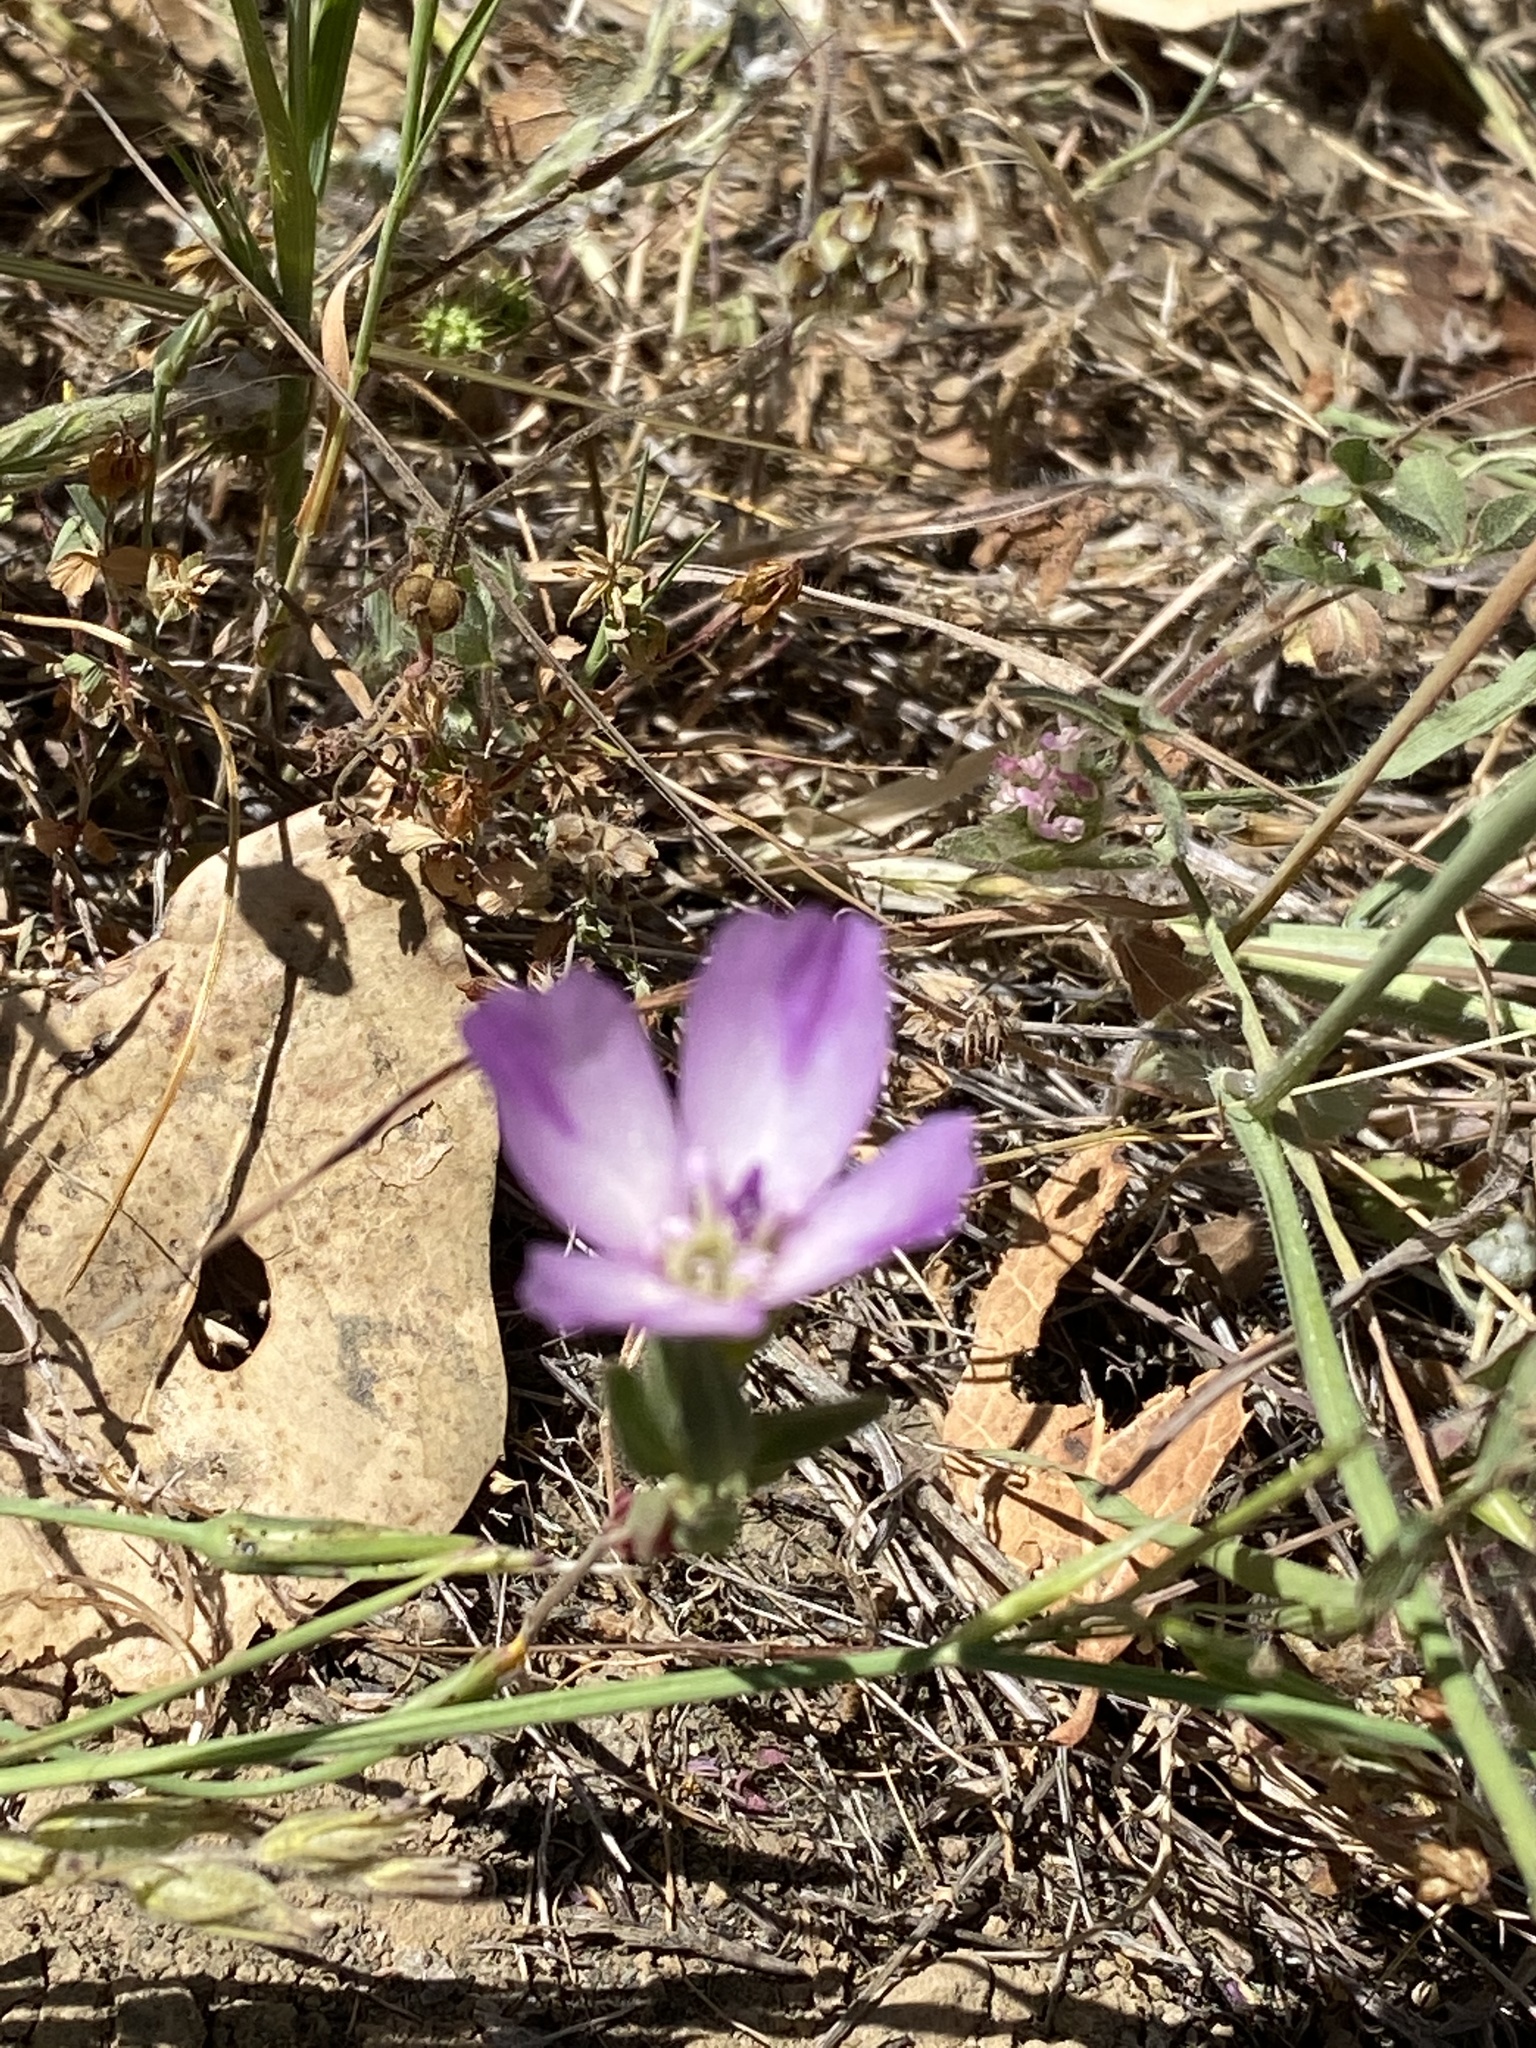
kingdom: Plantae
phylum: Tracheophyta
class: Magnoliopsida
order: Myrtales
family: Onagraceae
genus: Clarkia
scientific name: Clarkia purpurea
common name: Purple clarkia
